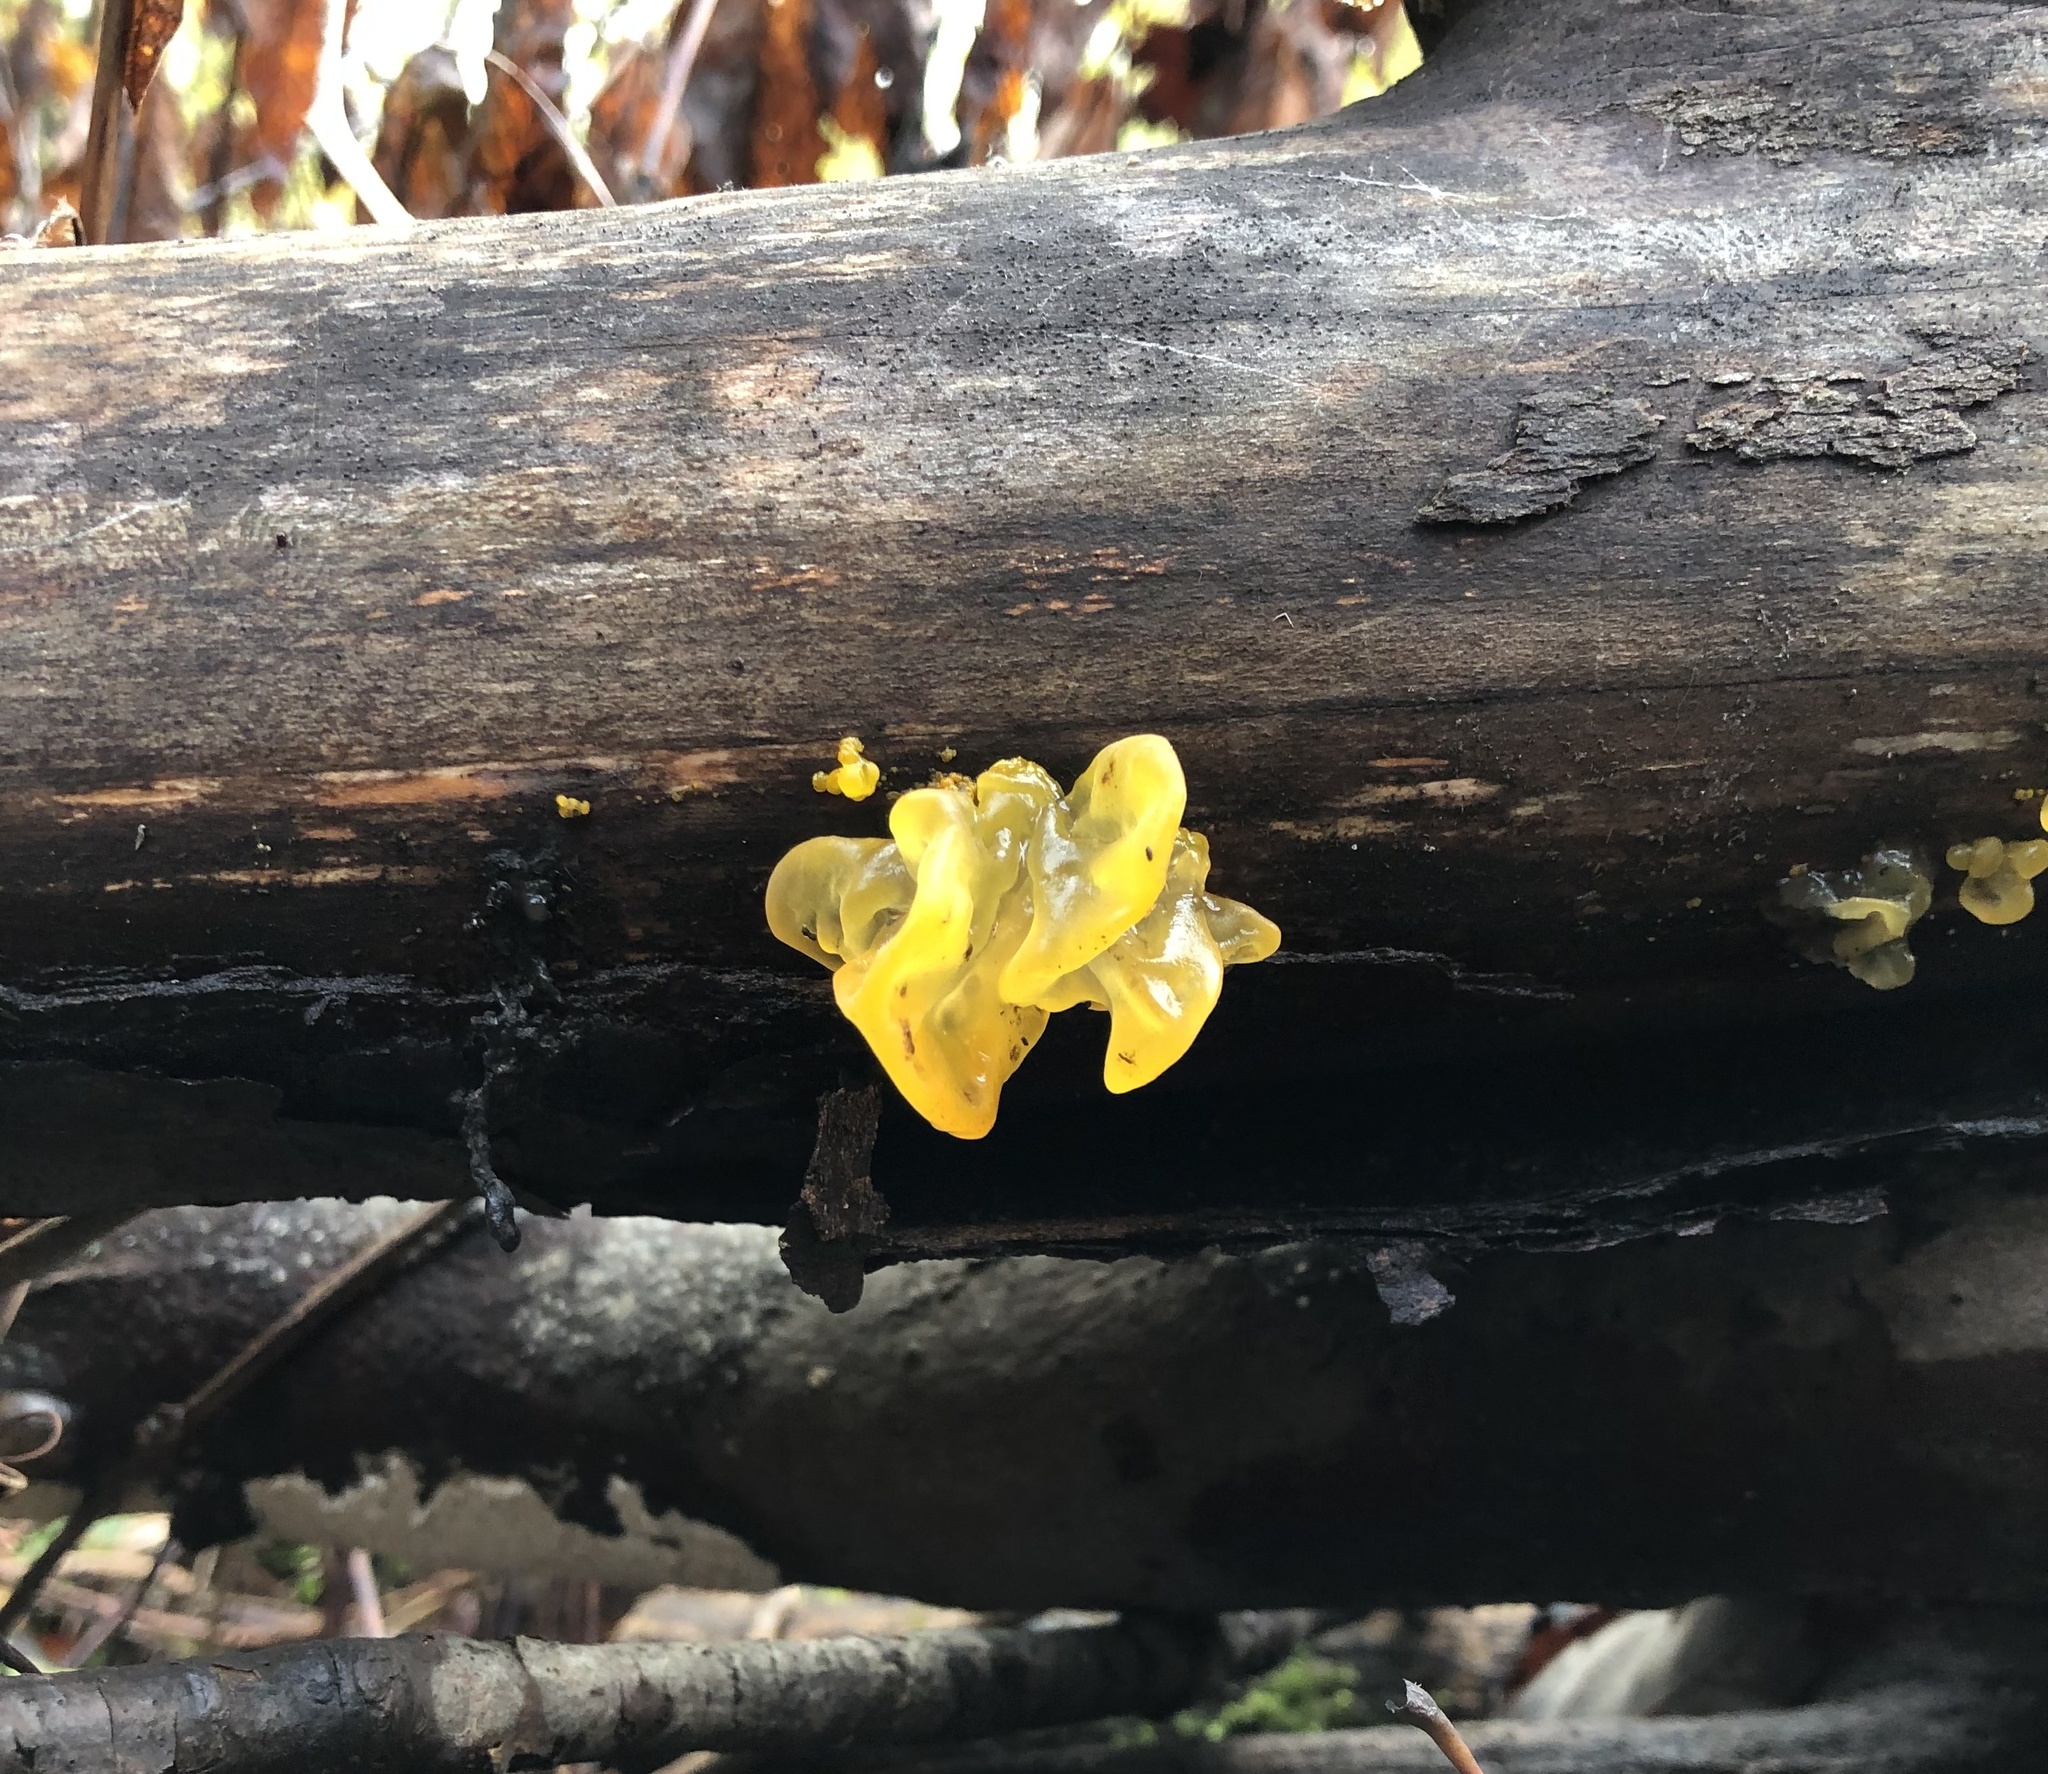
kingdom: Fungi
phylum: Basidiomycota
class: Tremellomycetes
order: Tremellales
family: Tremellaceae
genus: Tremella
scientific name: Tremella mesenterica
